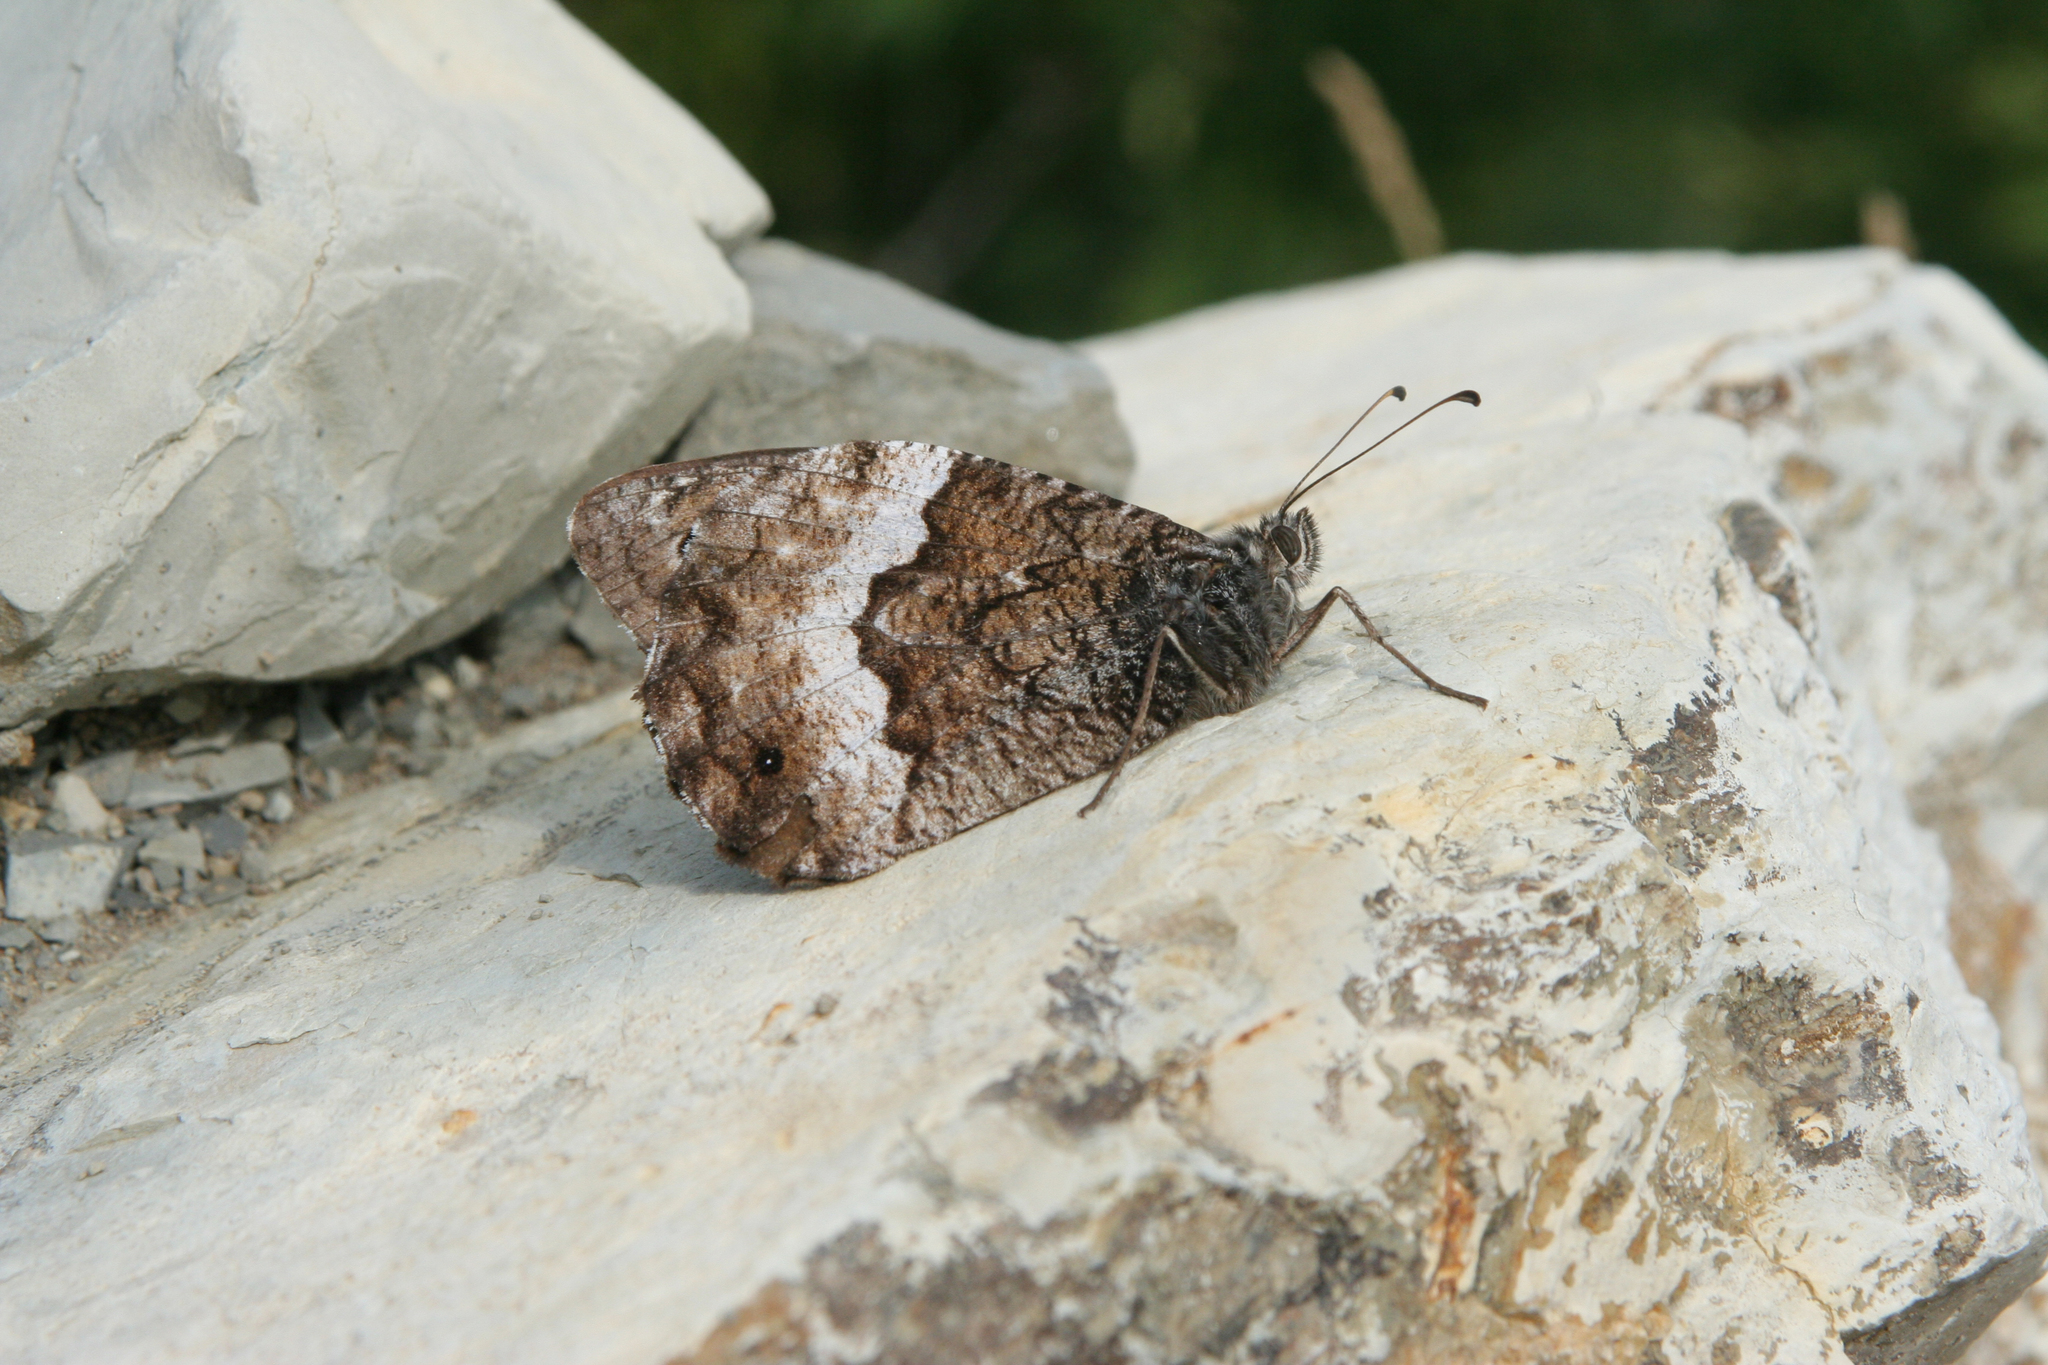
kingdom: Animalia
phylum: Arthropoda
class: Insecta
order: Lepidoptera
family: Nymphalidae
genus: Hipparchia
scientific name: Hipparchia fagi
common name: Woodland grayling
